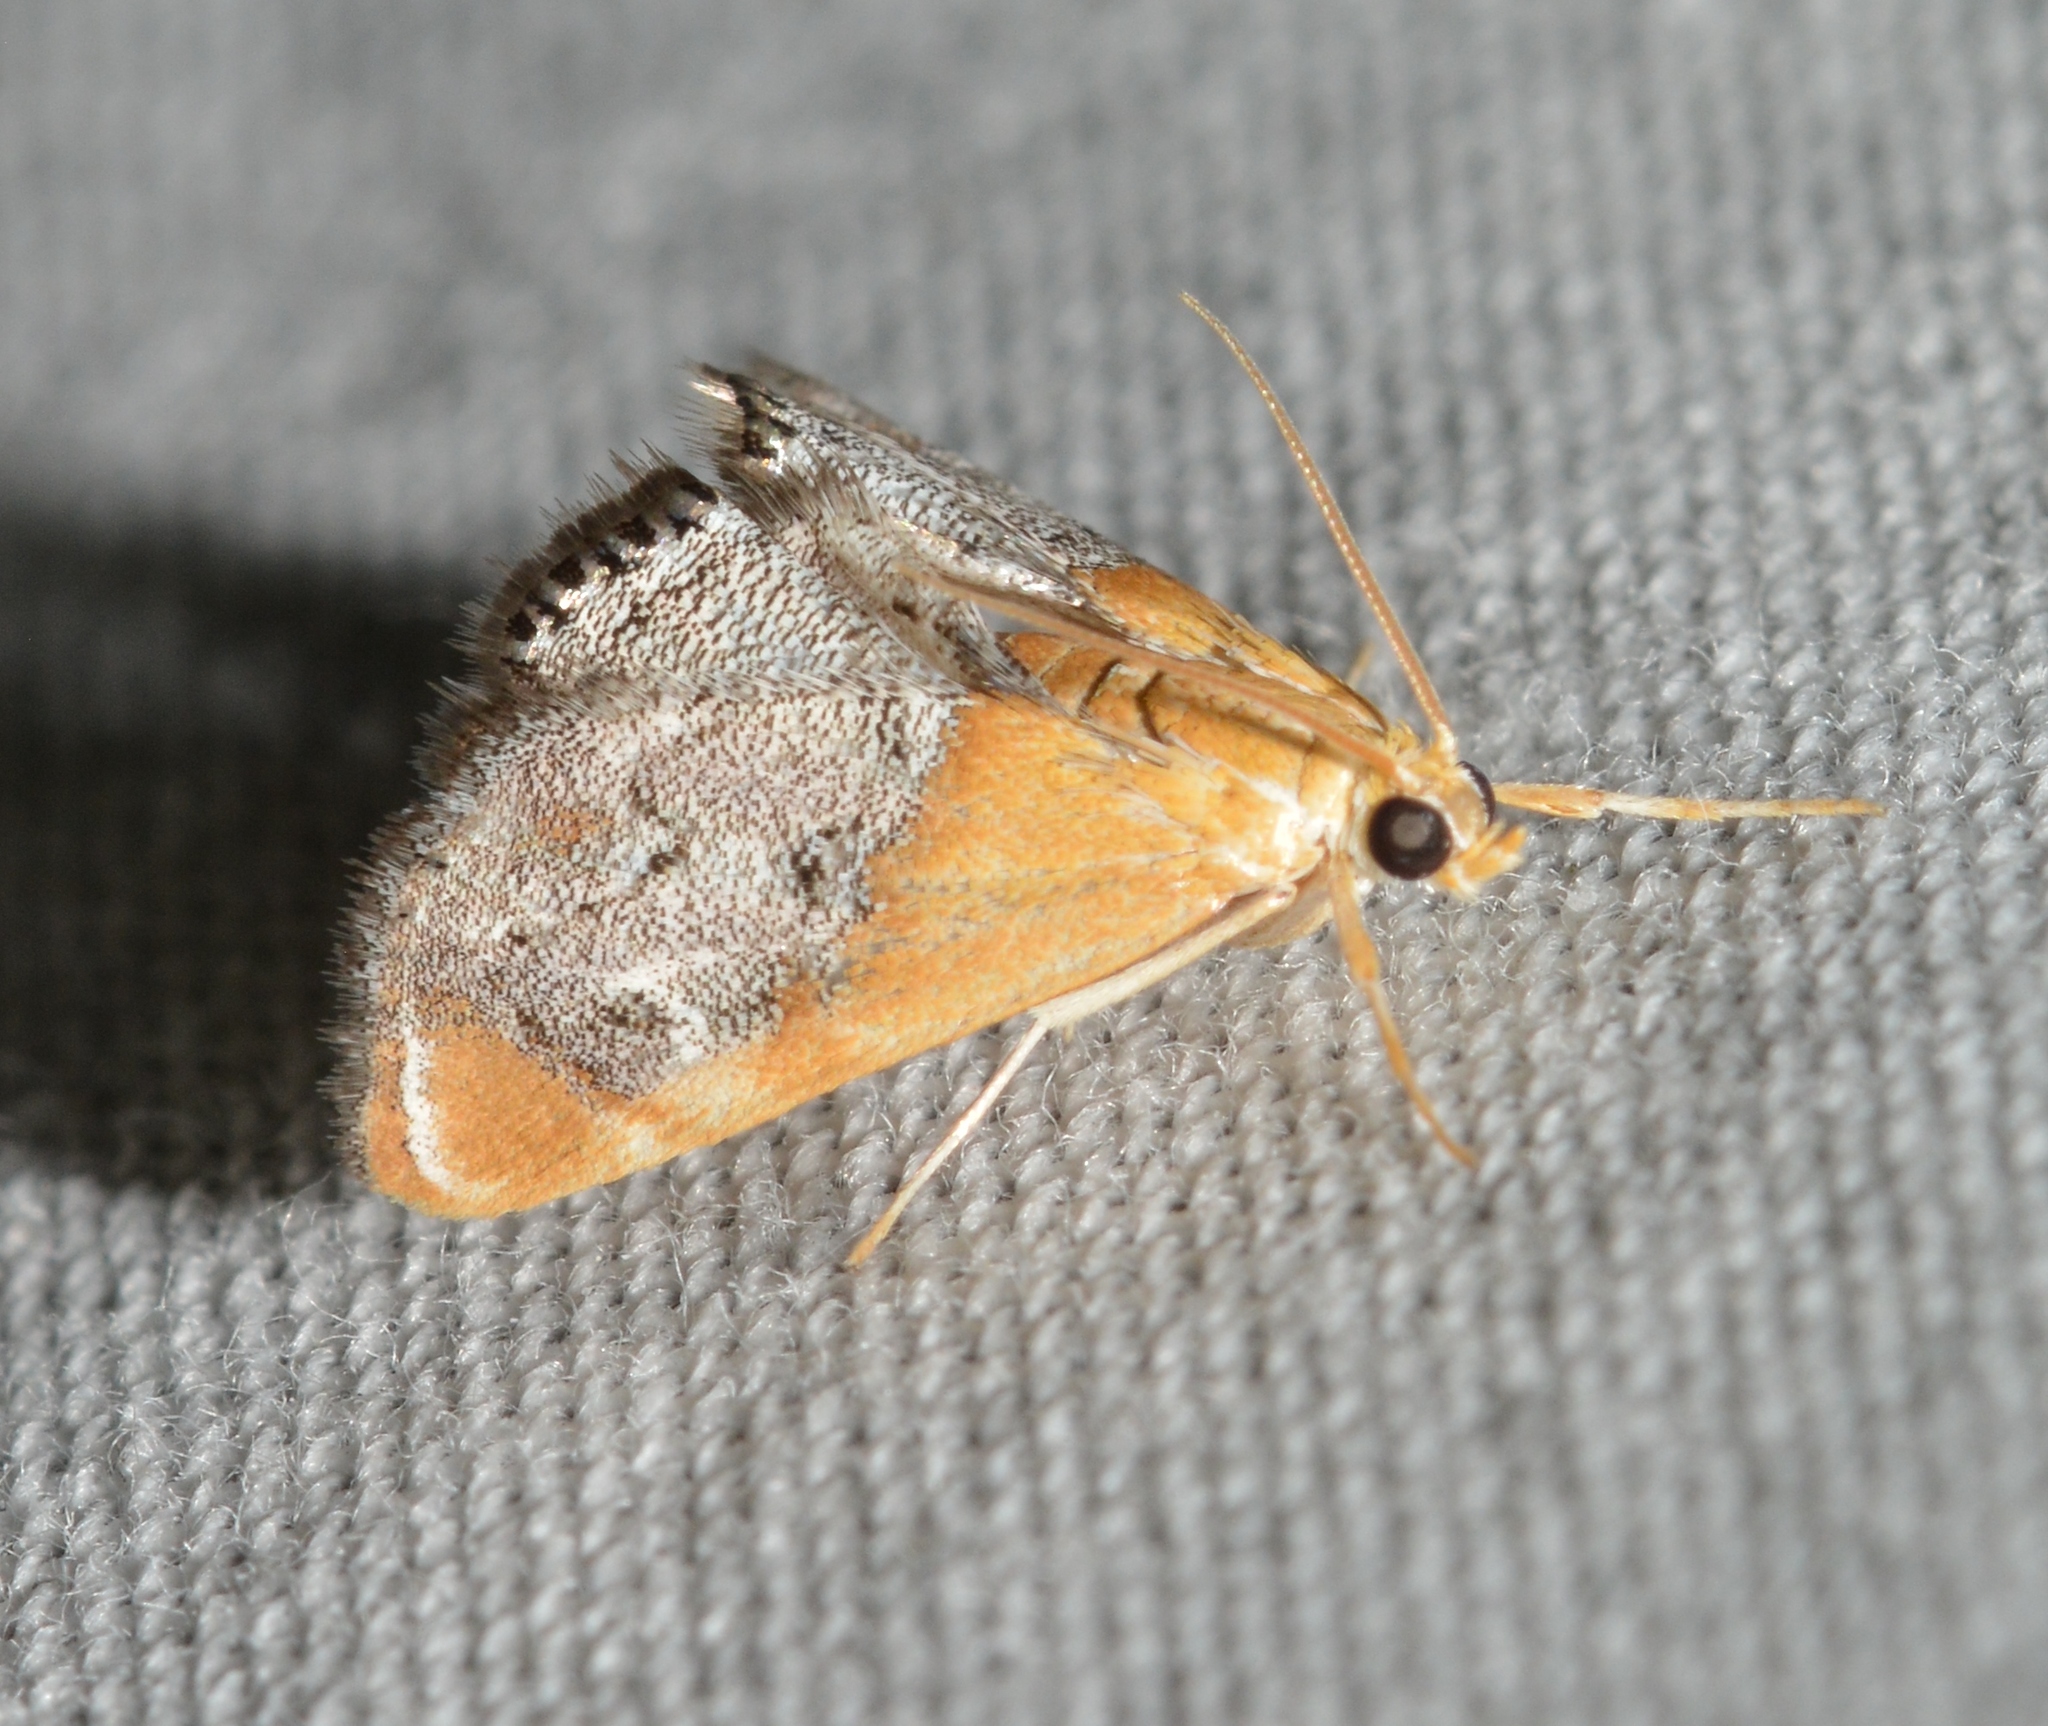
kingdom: Animalia
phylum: Arthropoda
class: Insecta
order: Lepidoptera
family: Crambidae
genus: Chalcoela
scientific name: Chalcoela iphitalis
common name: Sooty-winged chalcoela moth
